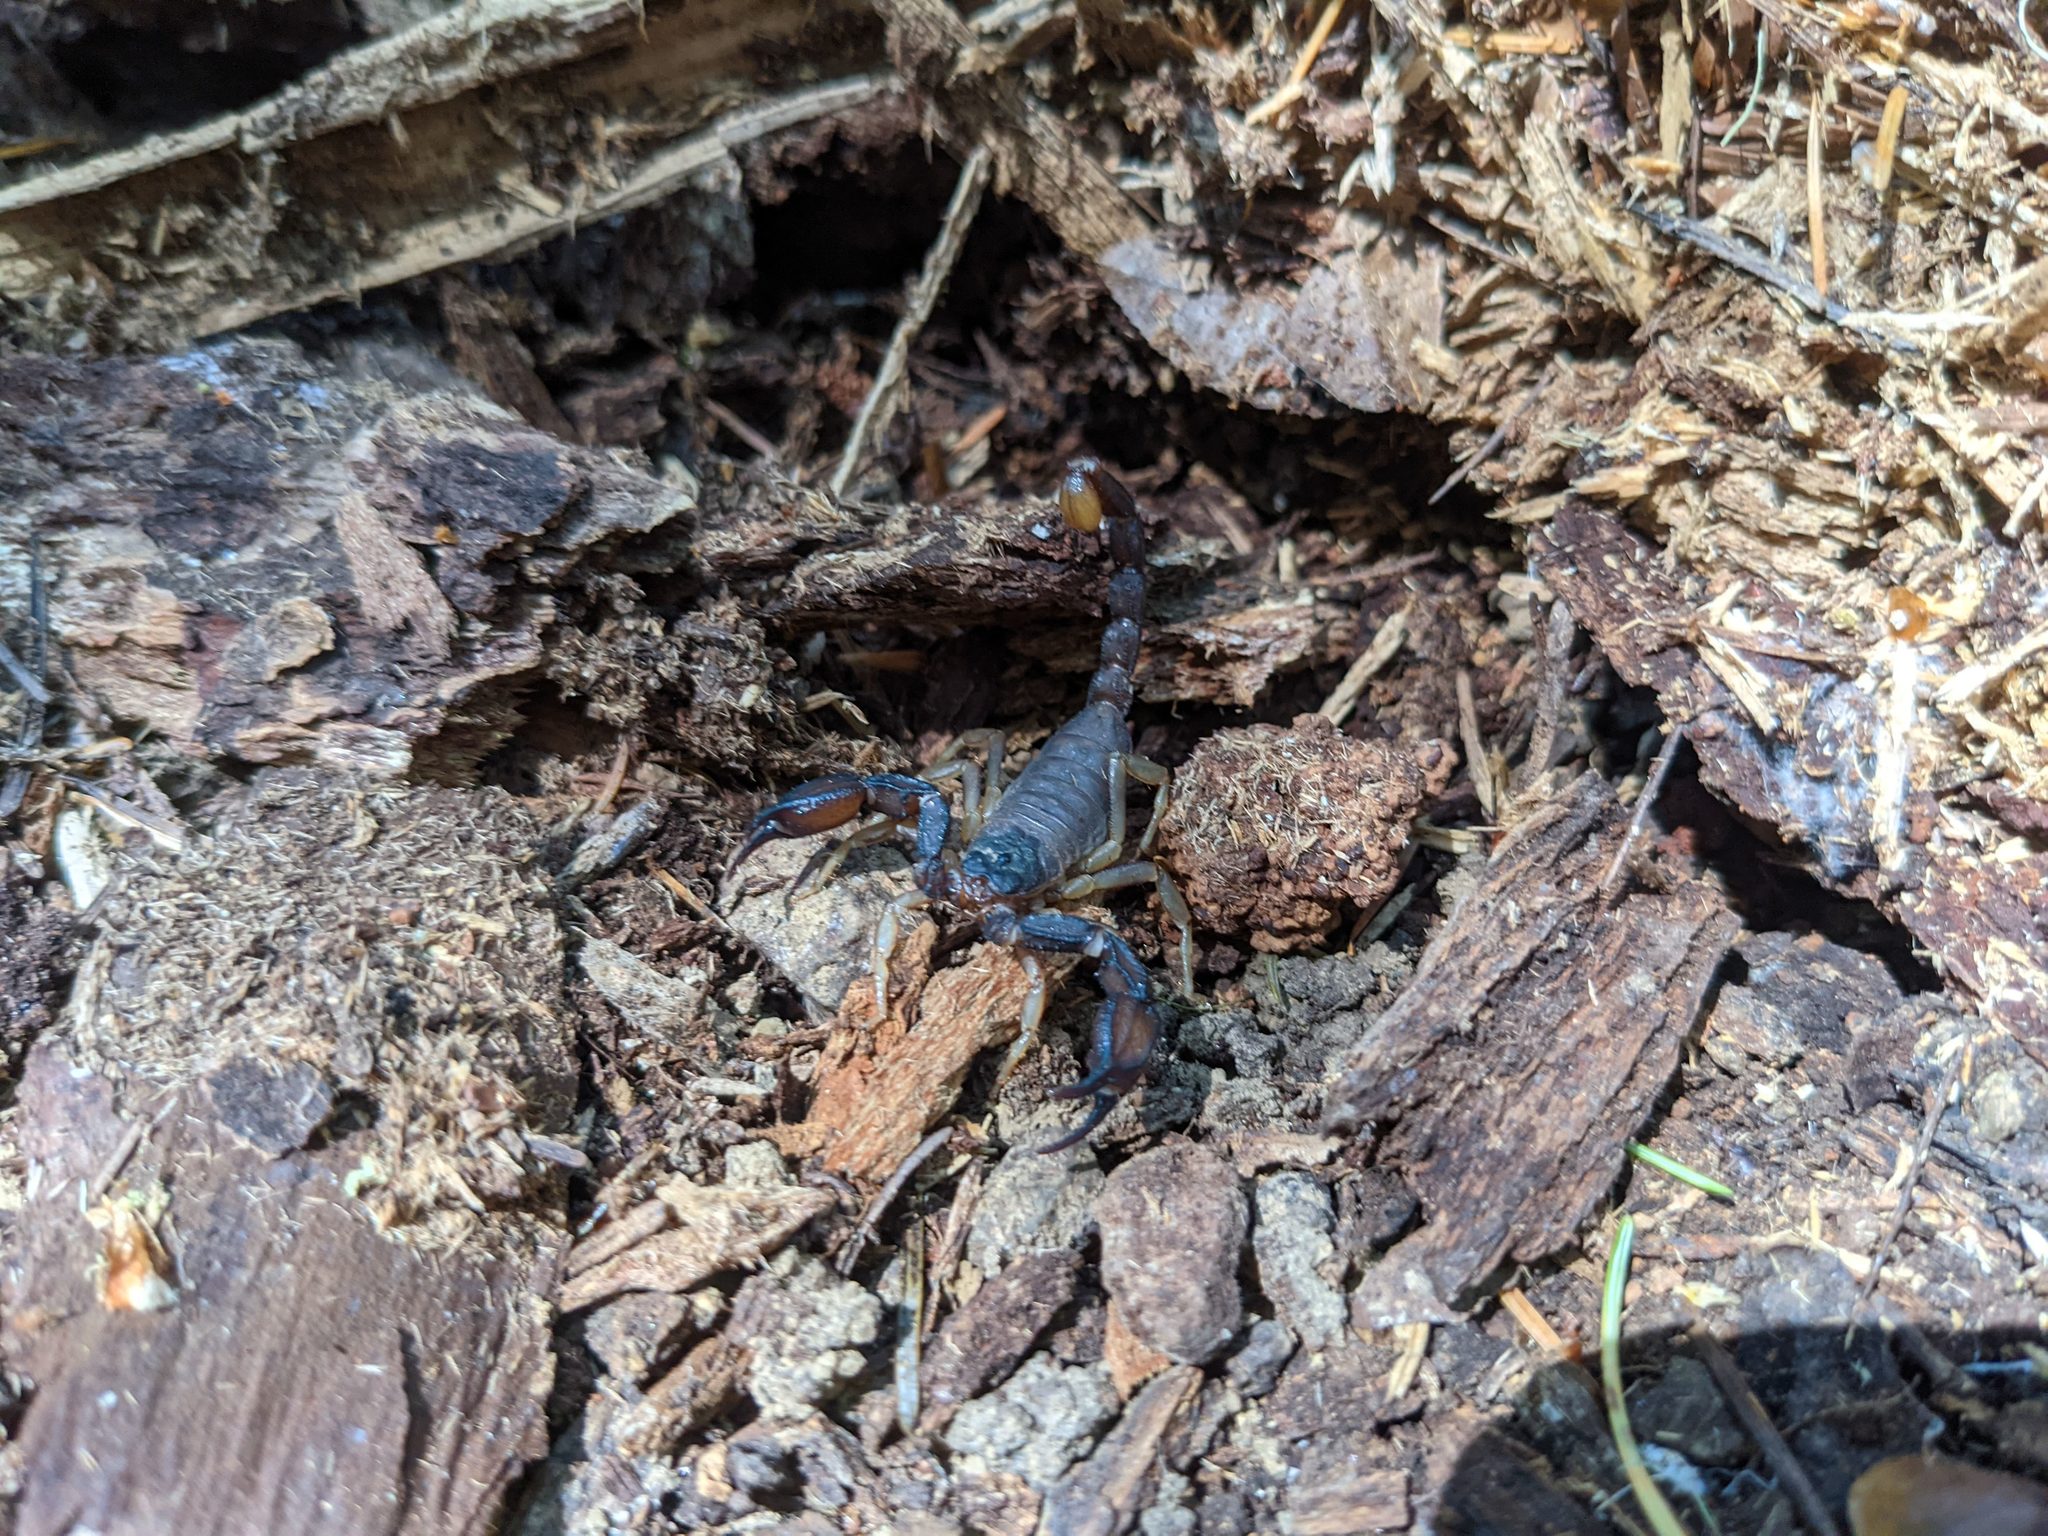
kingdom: Animalia
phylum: Arthropoda
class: Arachnida
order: Scorpiones
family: Chactidae
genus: Uroctonus
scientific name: Uroctonus mordax
